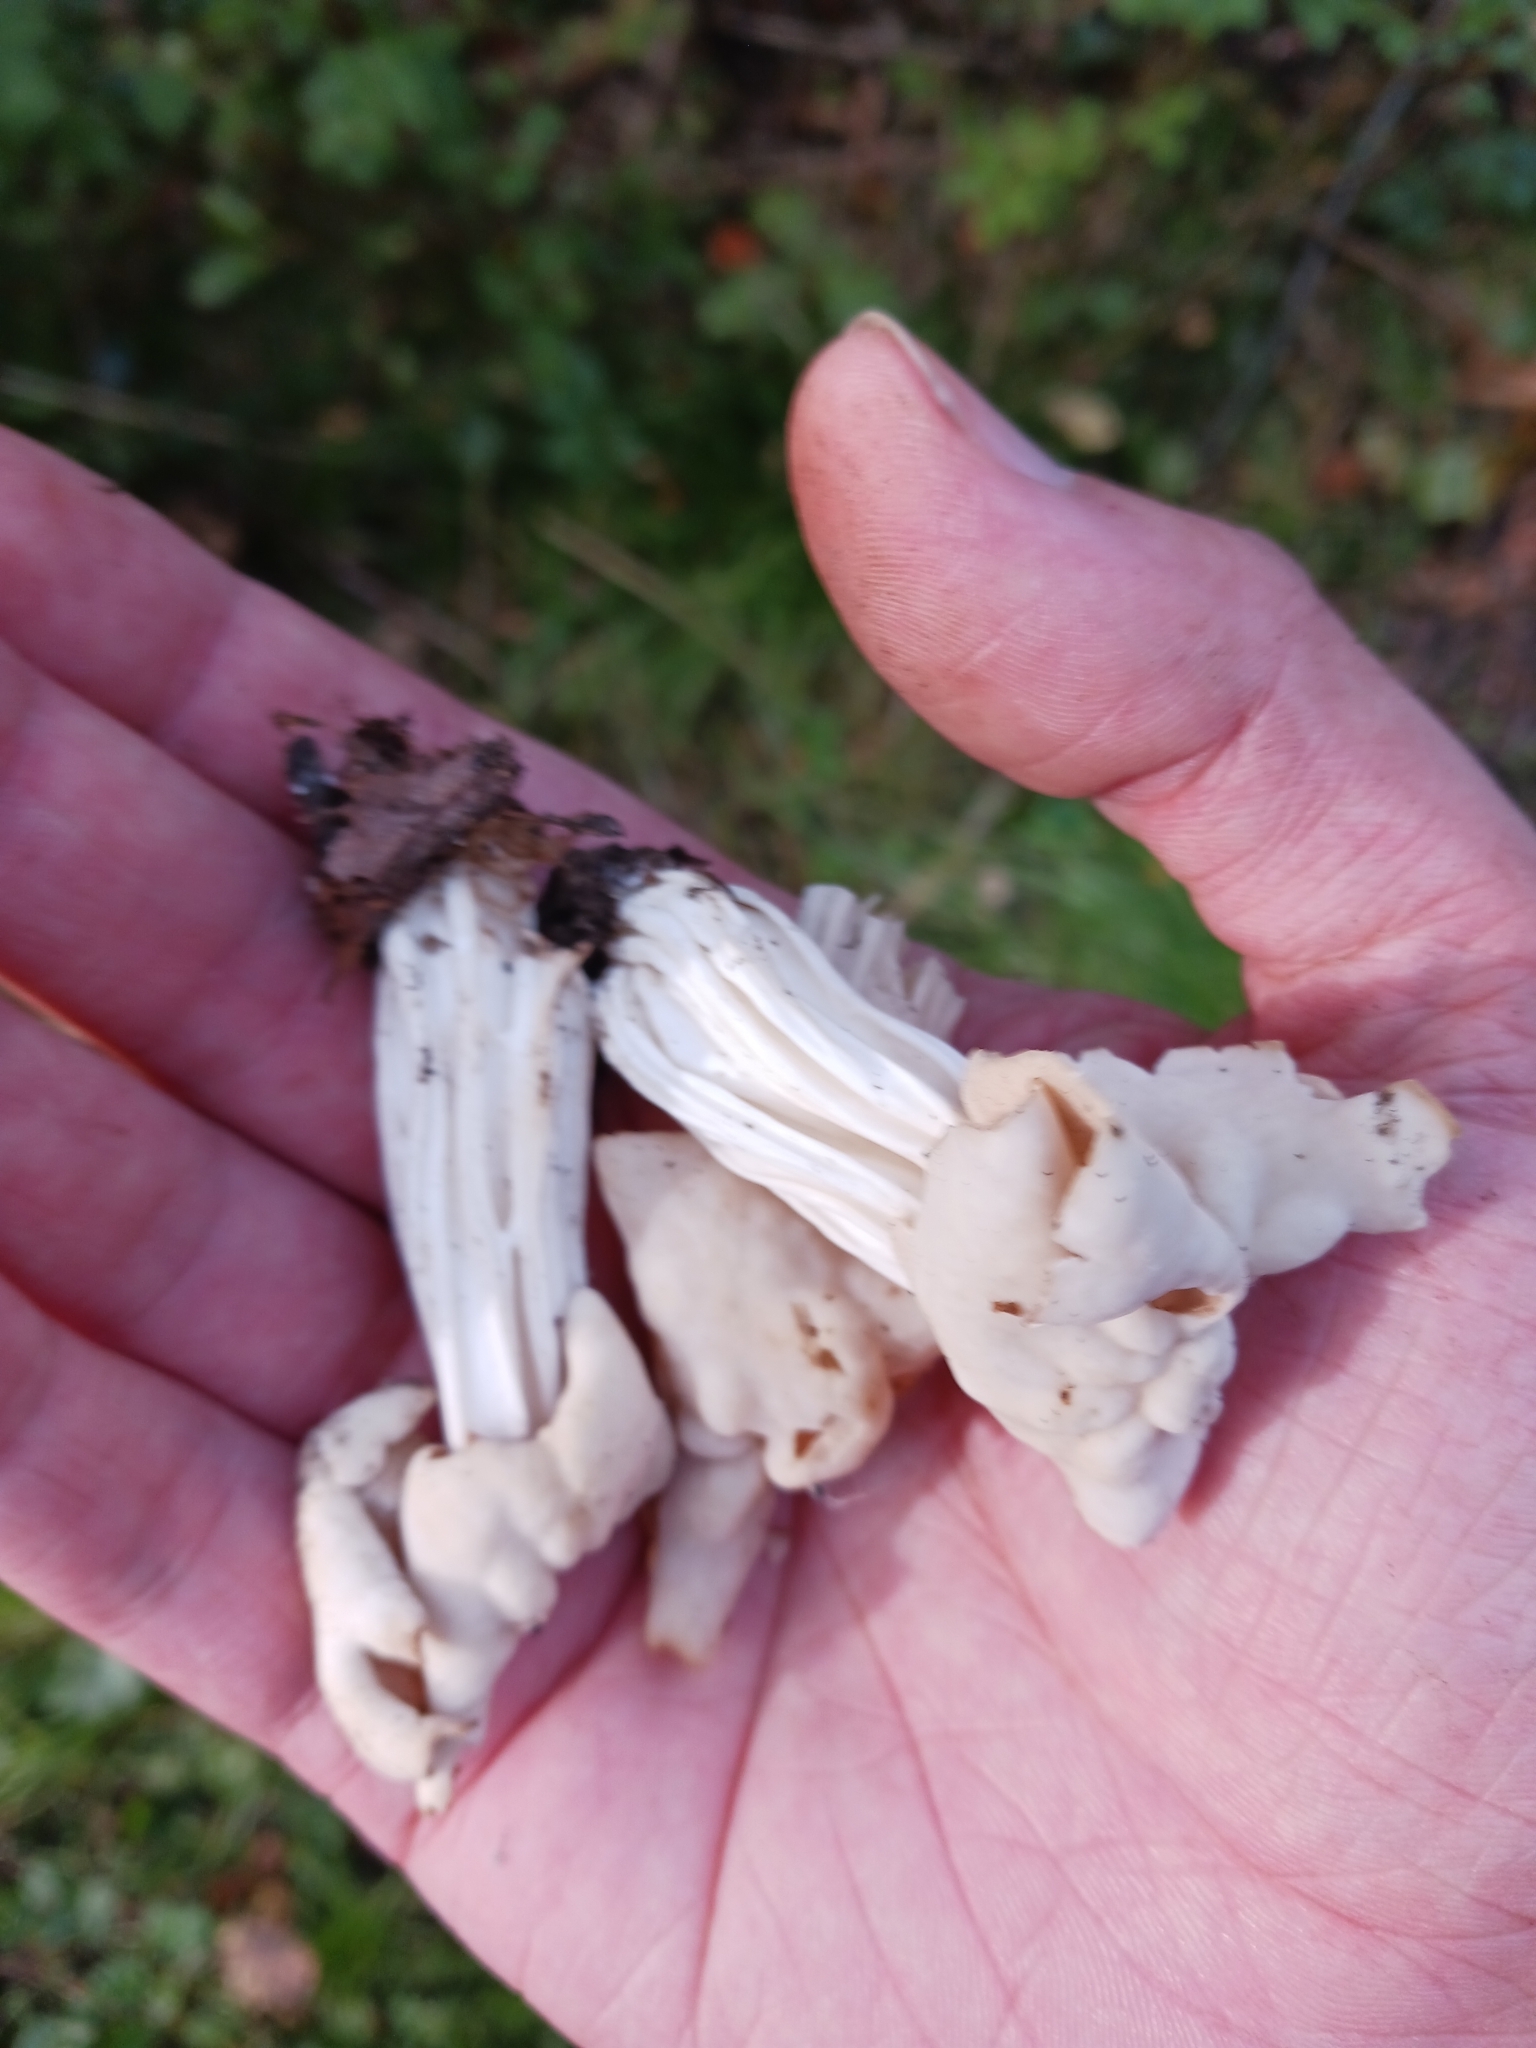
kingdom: Fungi
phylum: Ascomycota
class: Pezizomycetes
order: Pezizales
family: Helvellaceae
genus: Helvella
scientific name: Helvella crispa
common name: White saddle
